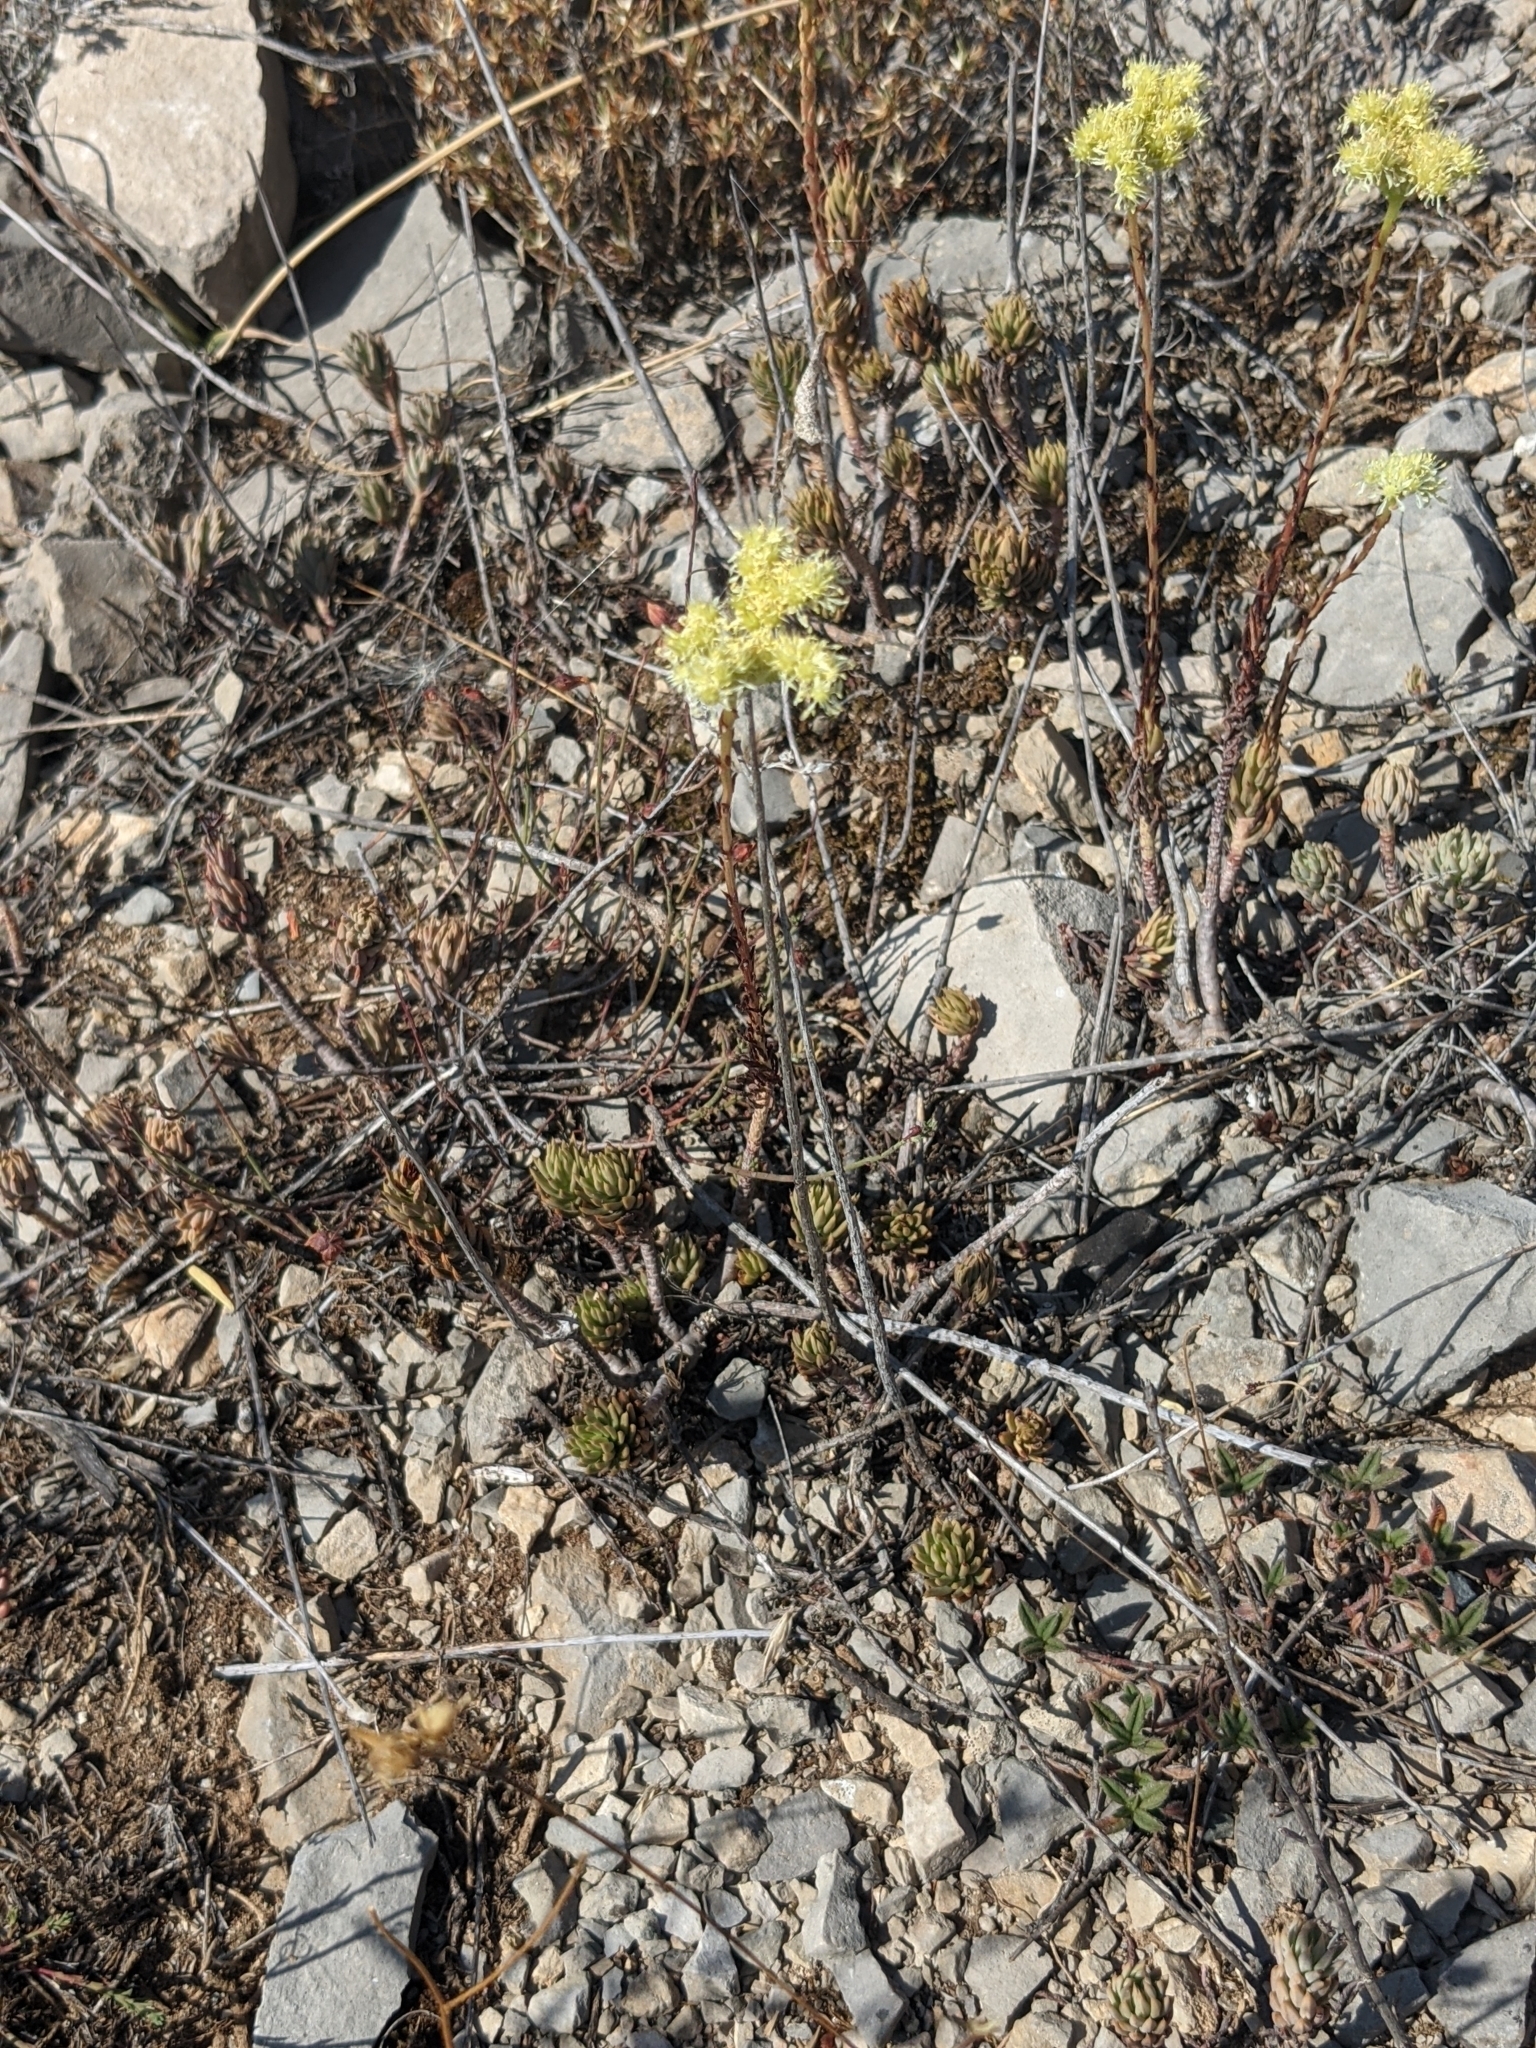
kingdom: Plantae
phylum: Tracheophyta
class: Magnoliopsida
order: Saxifragales
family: Crassulaceae
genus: Petrosedum
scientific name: Petrosedum sediforme
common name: Pale stonecrop
